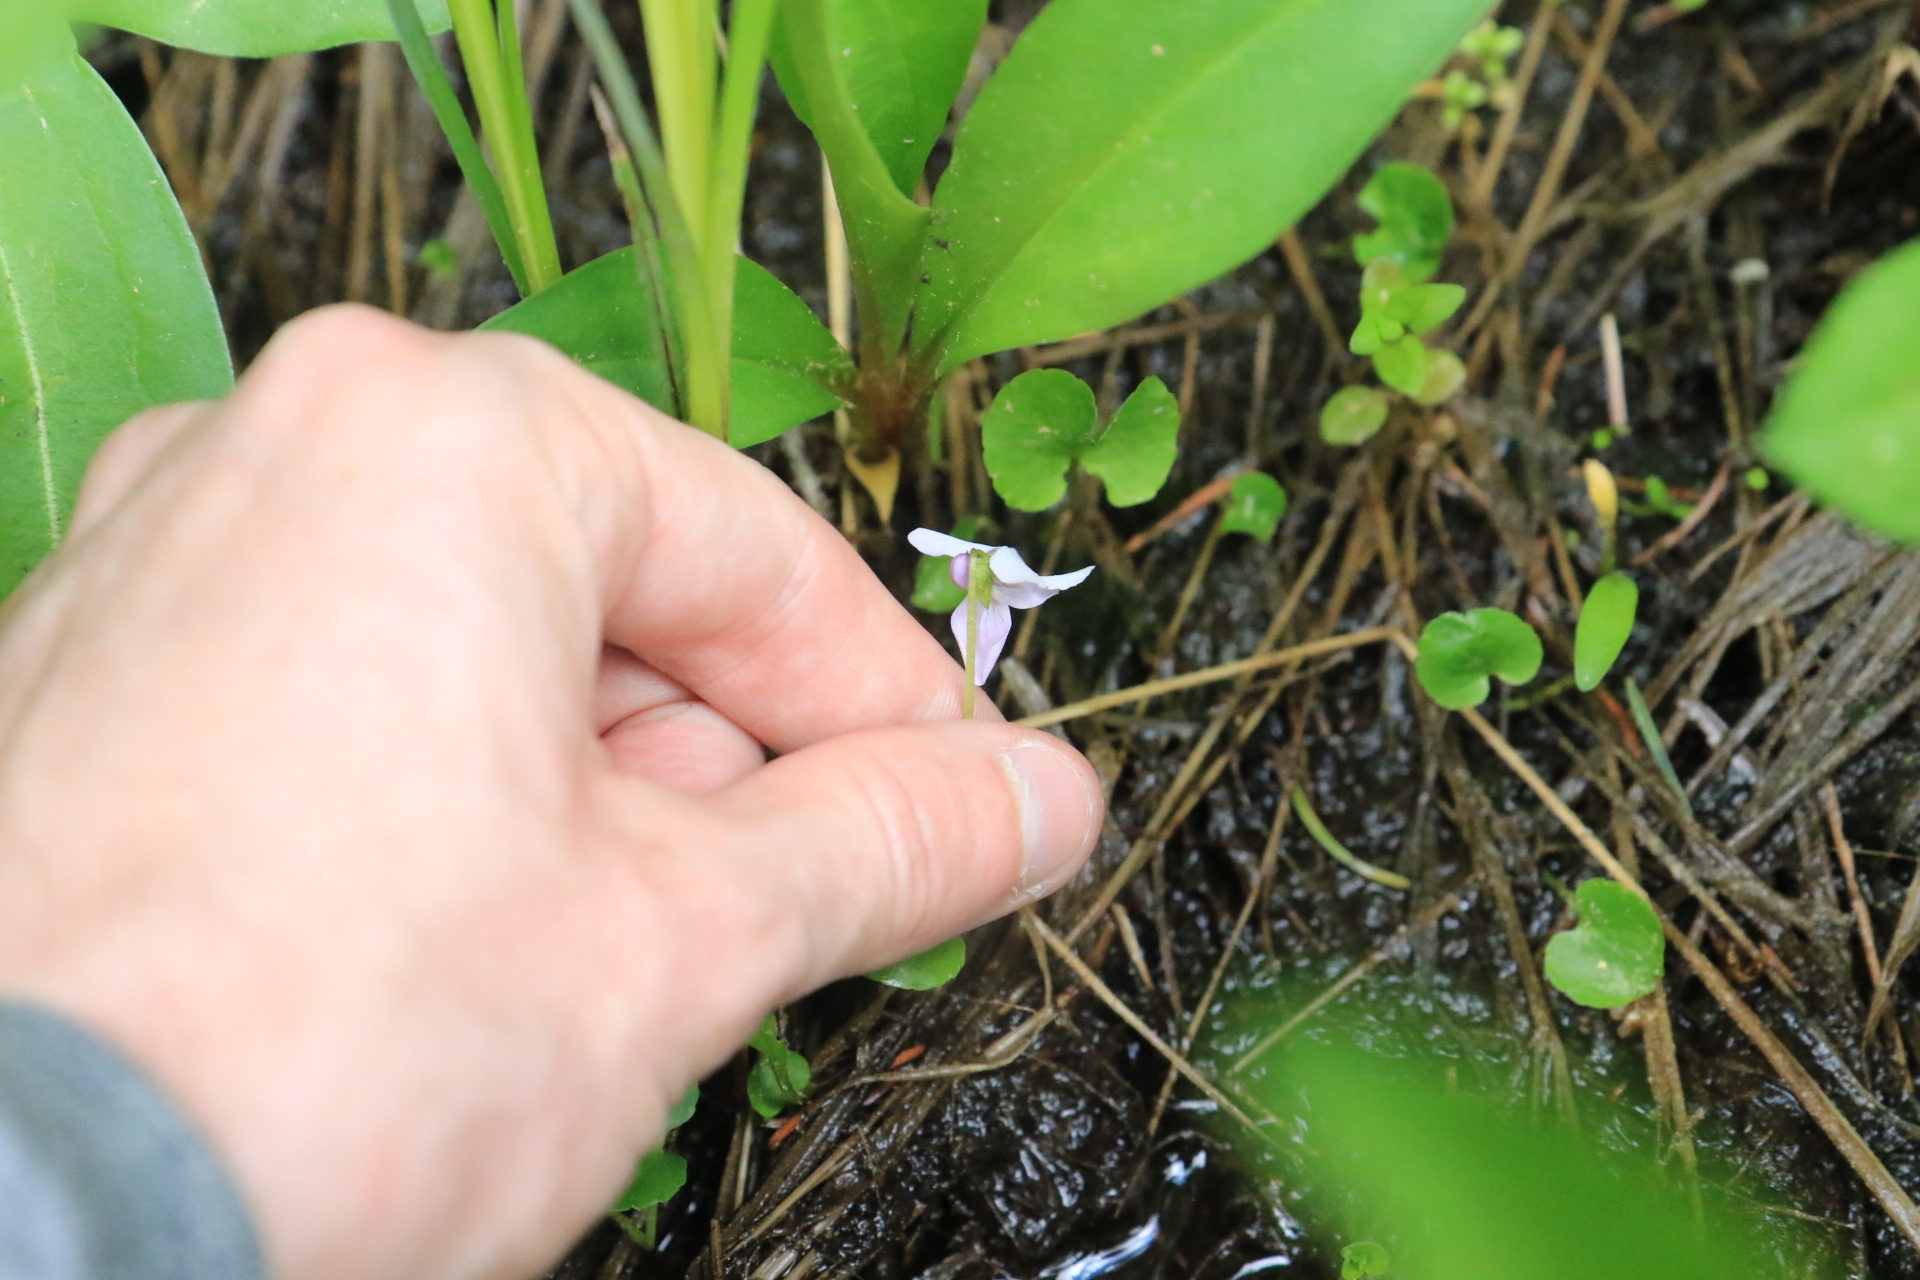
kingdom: Plantae
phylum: Tracheophyta
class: Magnoliopsida
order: Malpighiales
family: Violaceae
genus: Viola
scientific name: Viola palustris
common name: Marsh violet
